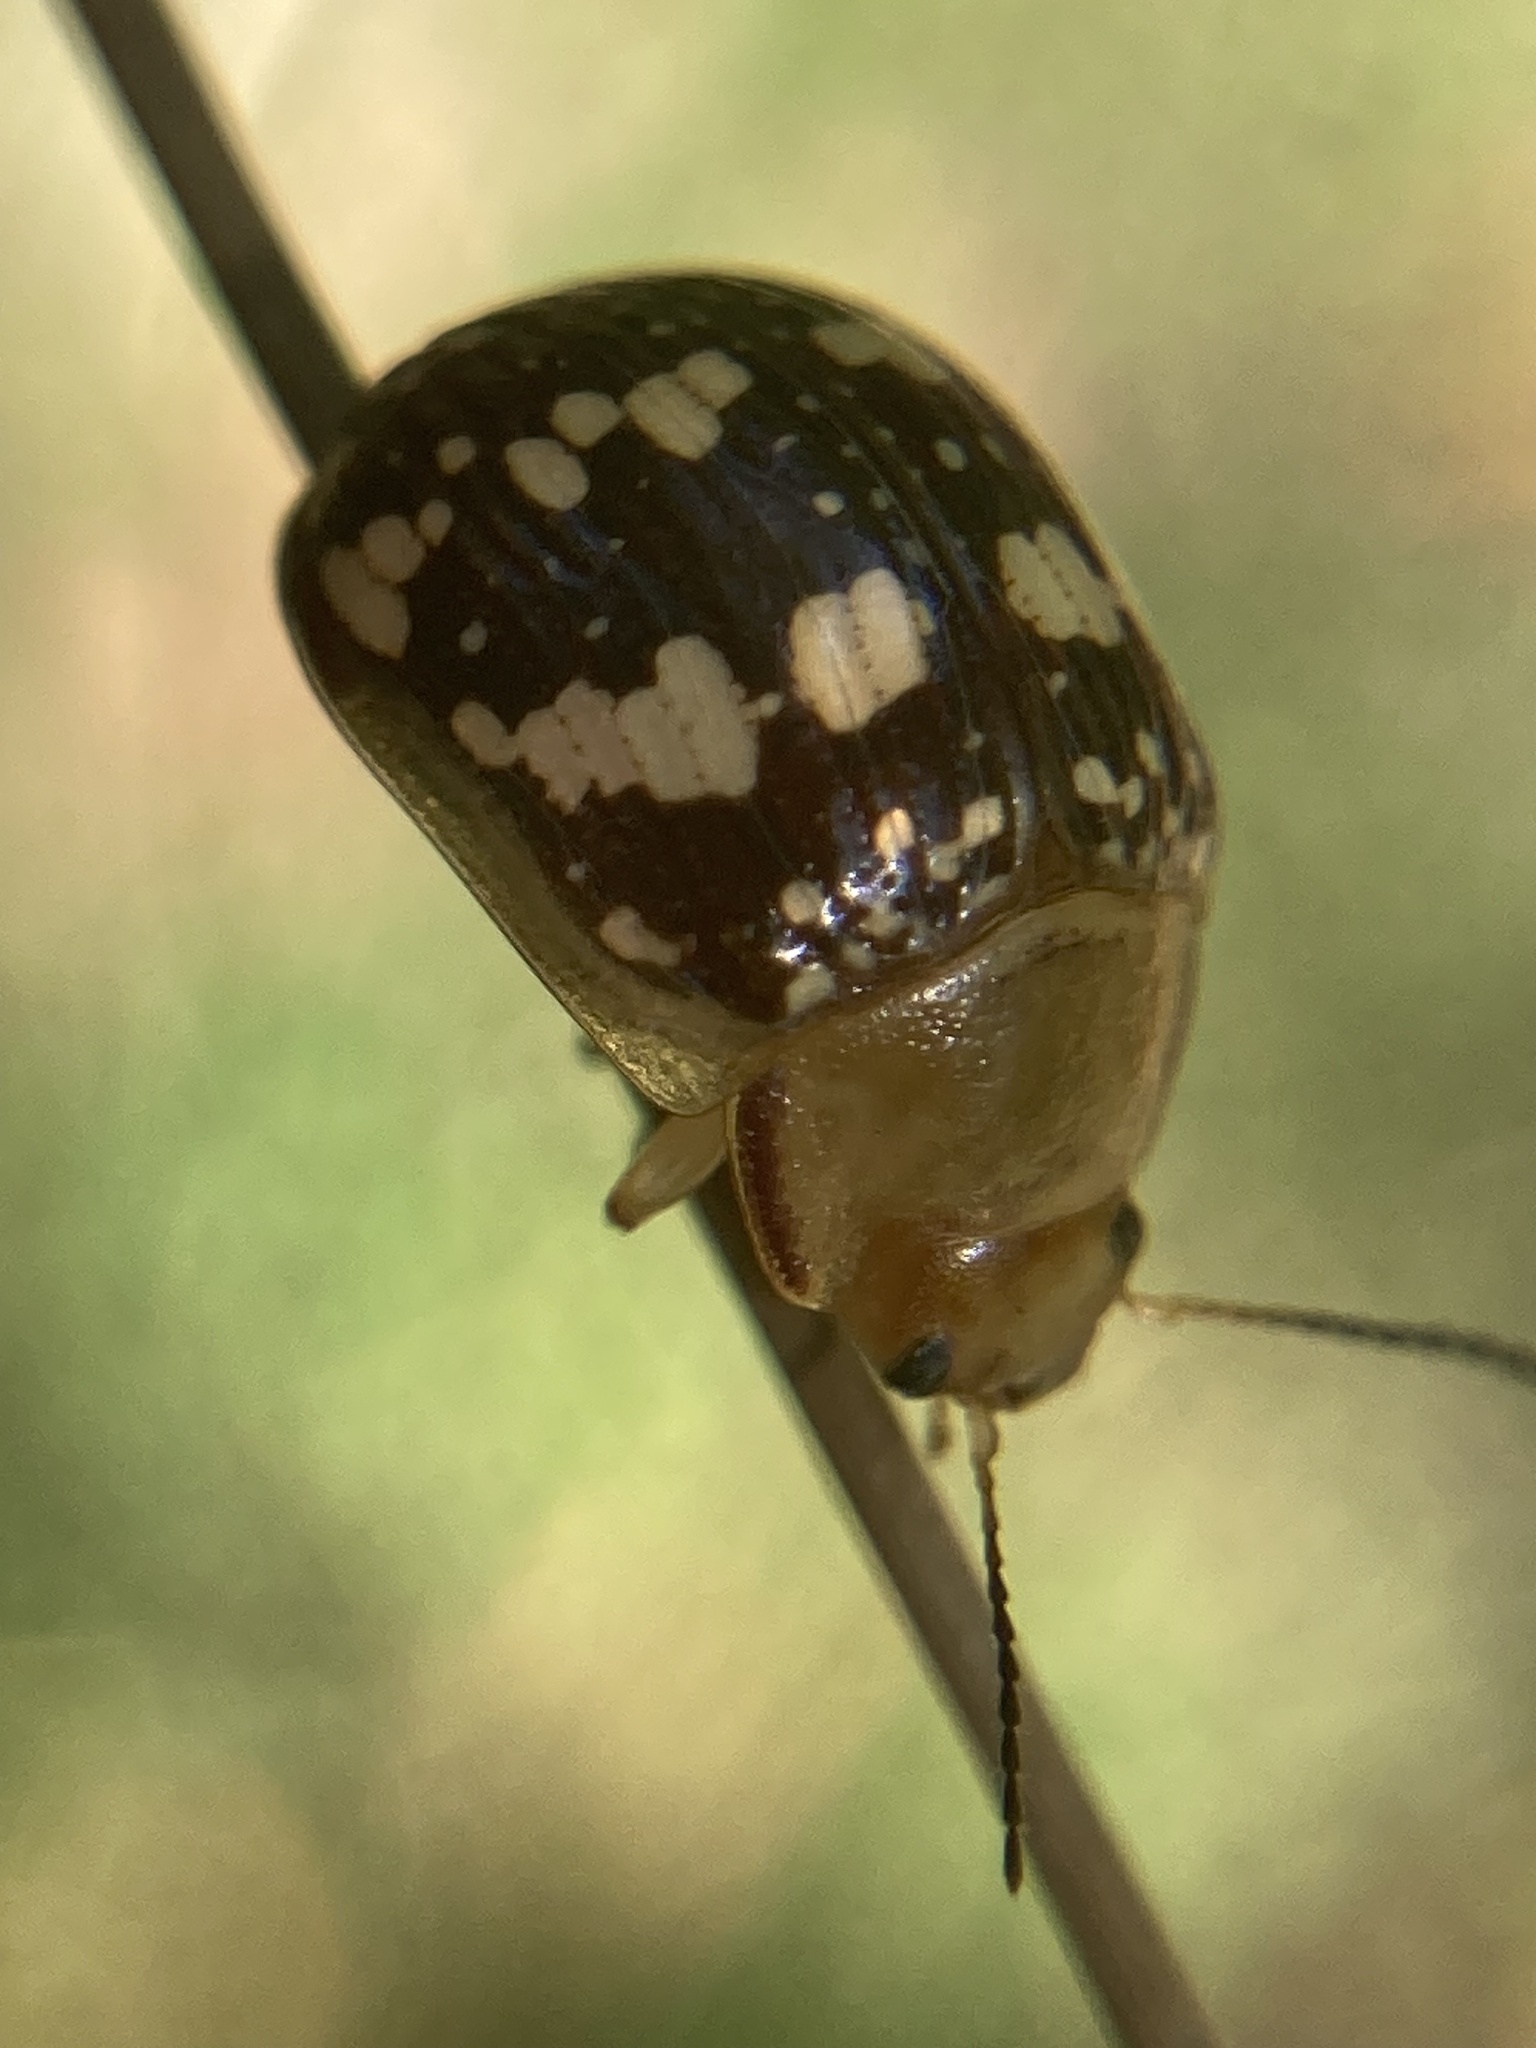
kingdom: Animalia
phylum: Arthropoda
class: Insecta
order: Coleoptera
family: Chrysomelidae
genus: Paropsis
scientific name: Paropsis
